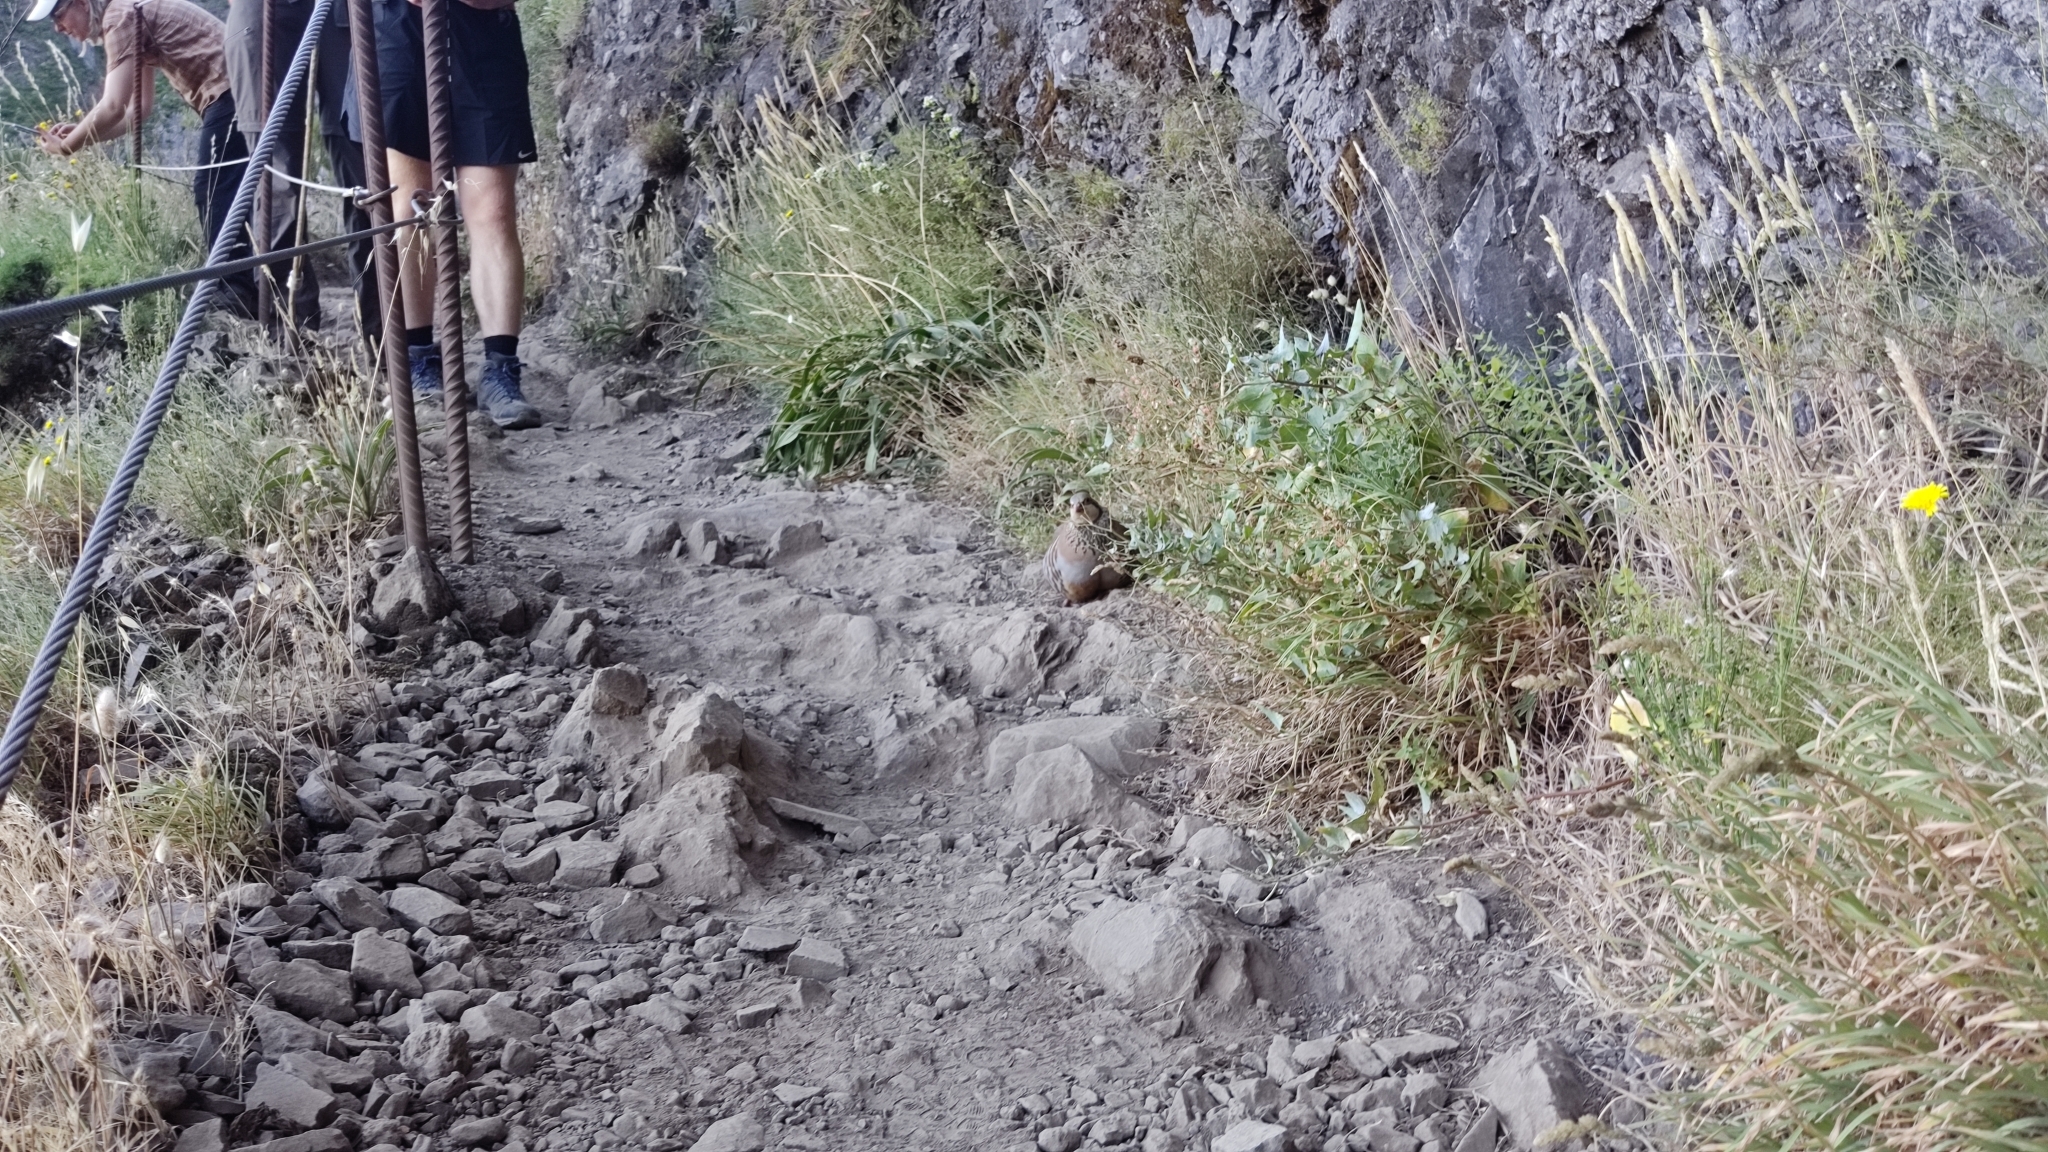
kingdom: Animalia
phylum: Chordata
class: Aves
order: Galliformes
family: Phasianidae
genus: Alectoris
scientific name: Alectoris rufa
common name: Red-legged partridge
